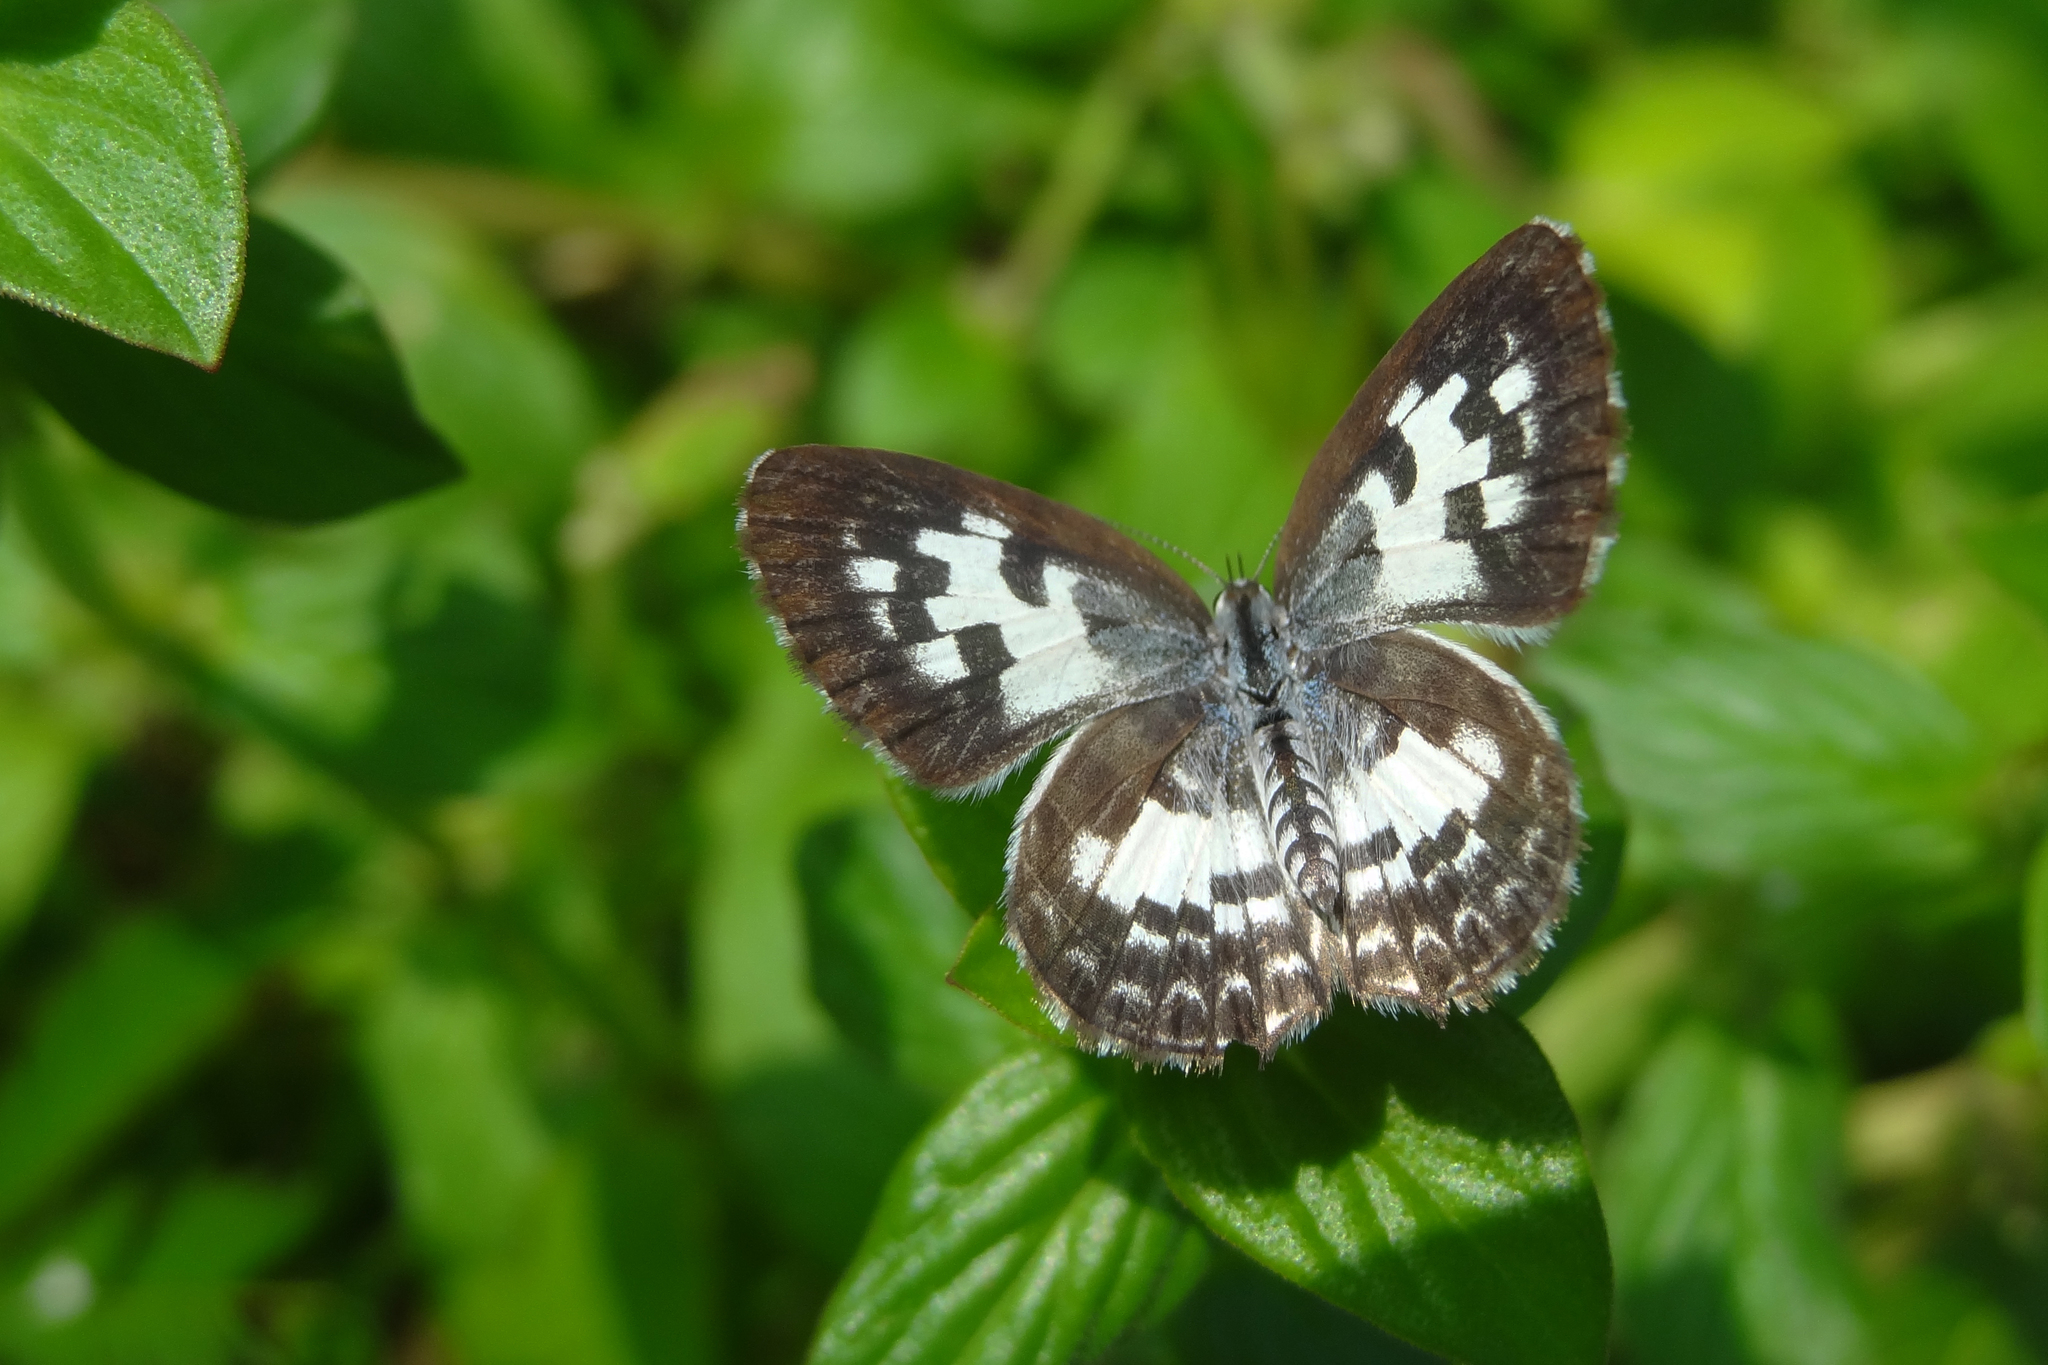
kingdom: Animalia
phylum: Arthropoda
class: Insecta
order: Lepidoptera
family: Lycaenidae
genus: Castalius
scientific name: Castalius rosimon
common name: Common pierrot
